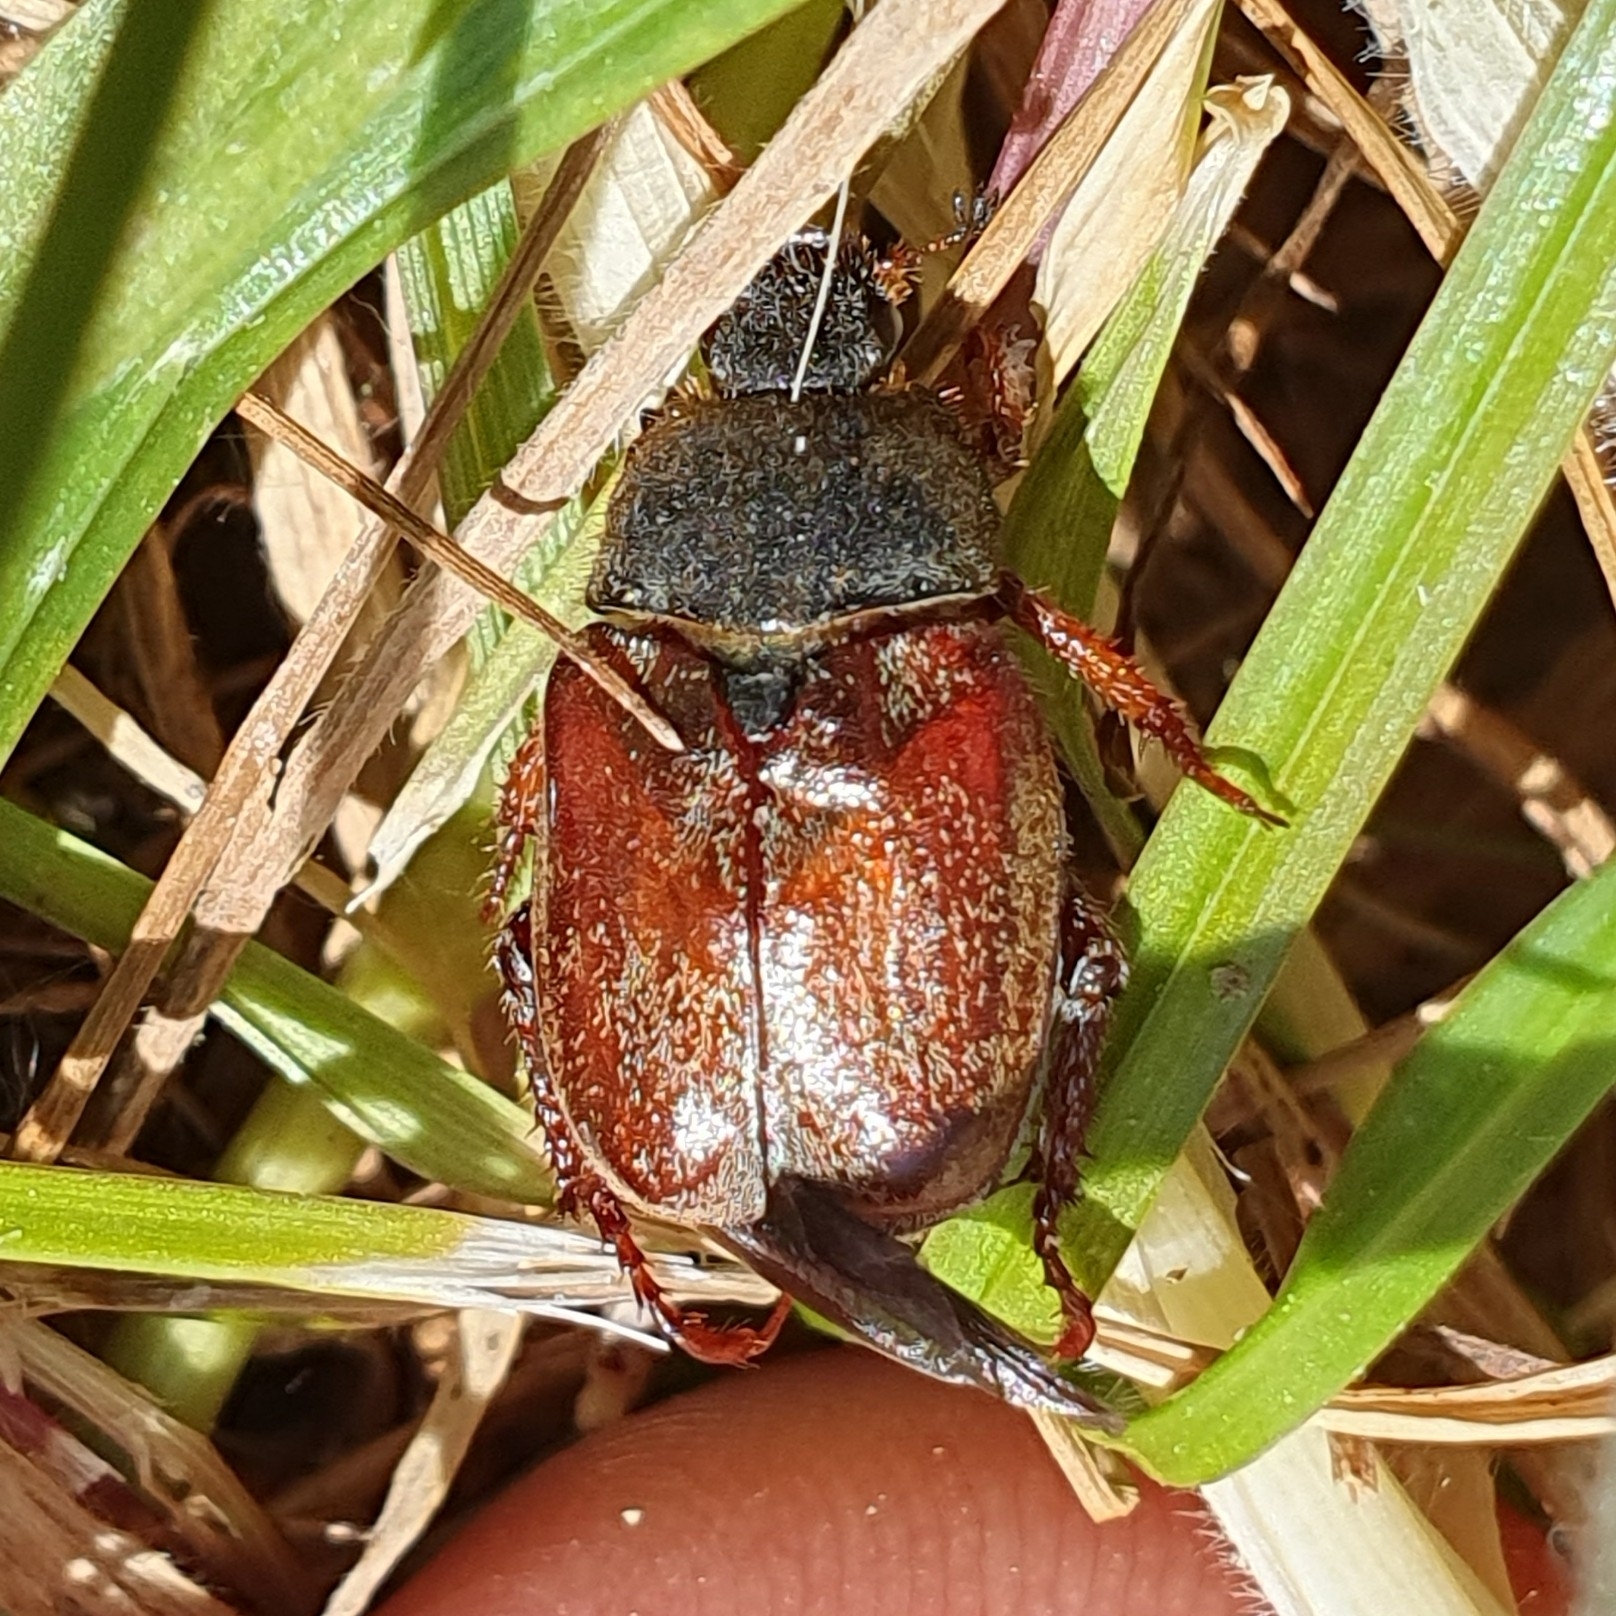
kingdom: Animalia
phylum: Arthropoda
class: Insecta
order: Coleoptera
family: Scarabaeidae
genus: Hoplia
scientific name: Hoplia philanthus
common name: Welsh chafer
